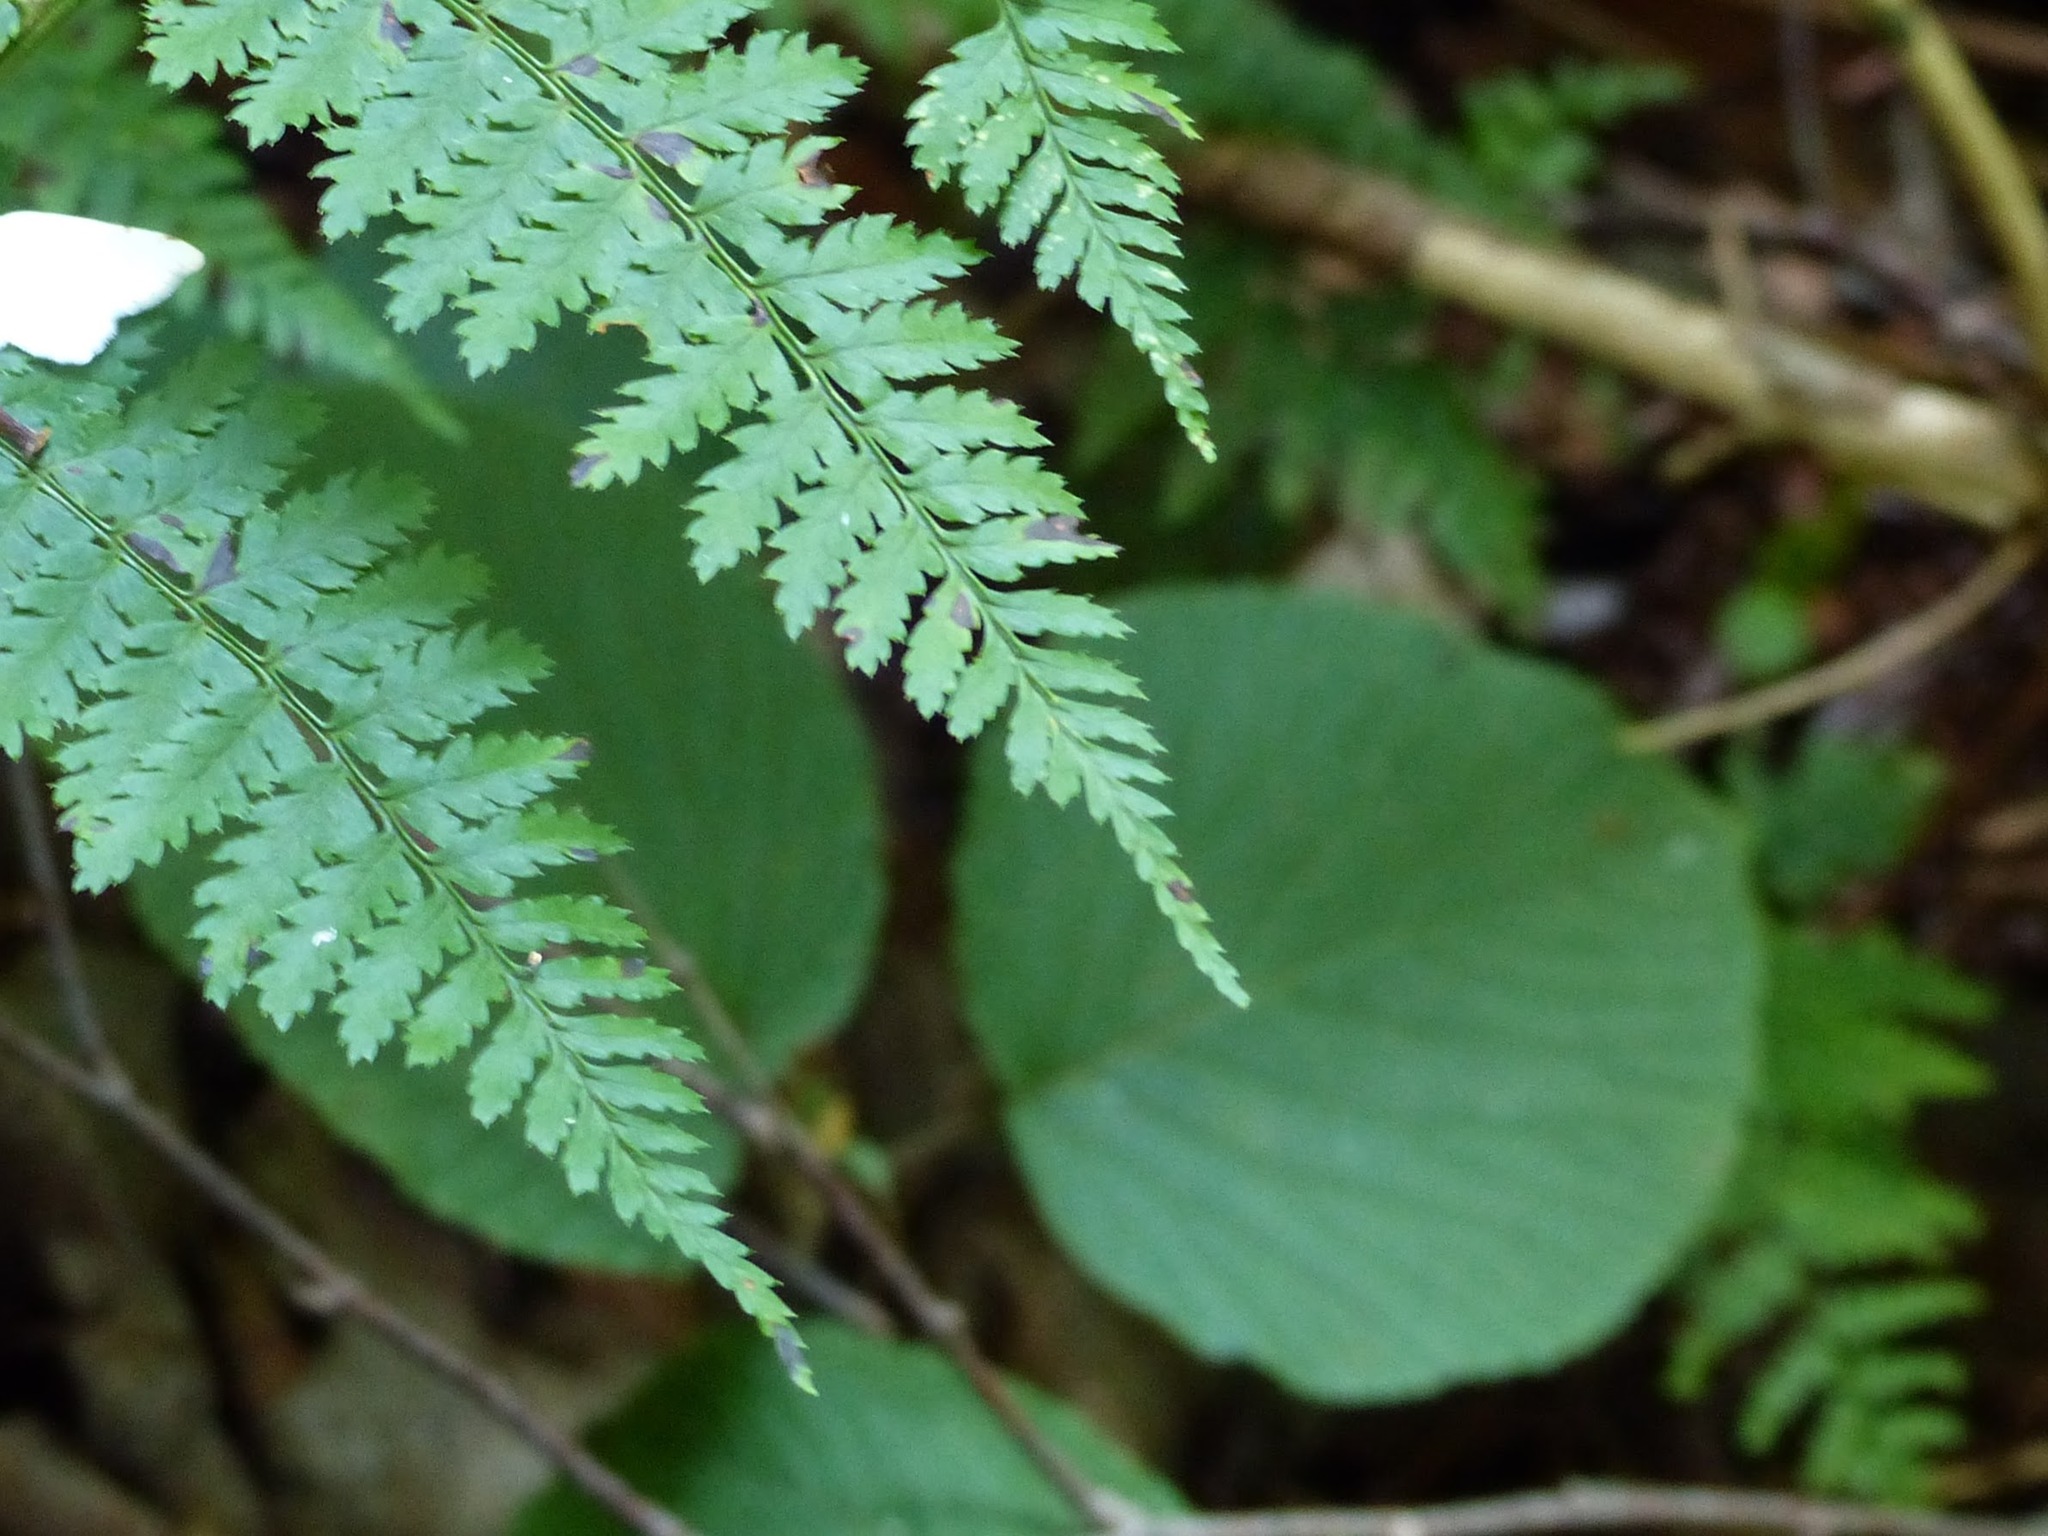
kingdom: Plantae
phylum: Tracheophyta
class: Magnoliopsida
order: Dipsacales
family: Viburnaceae
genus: Viburnum
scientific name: Viburnum lantanoides
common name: Hobblebush
